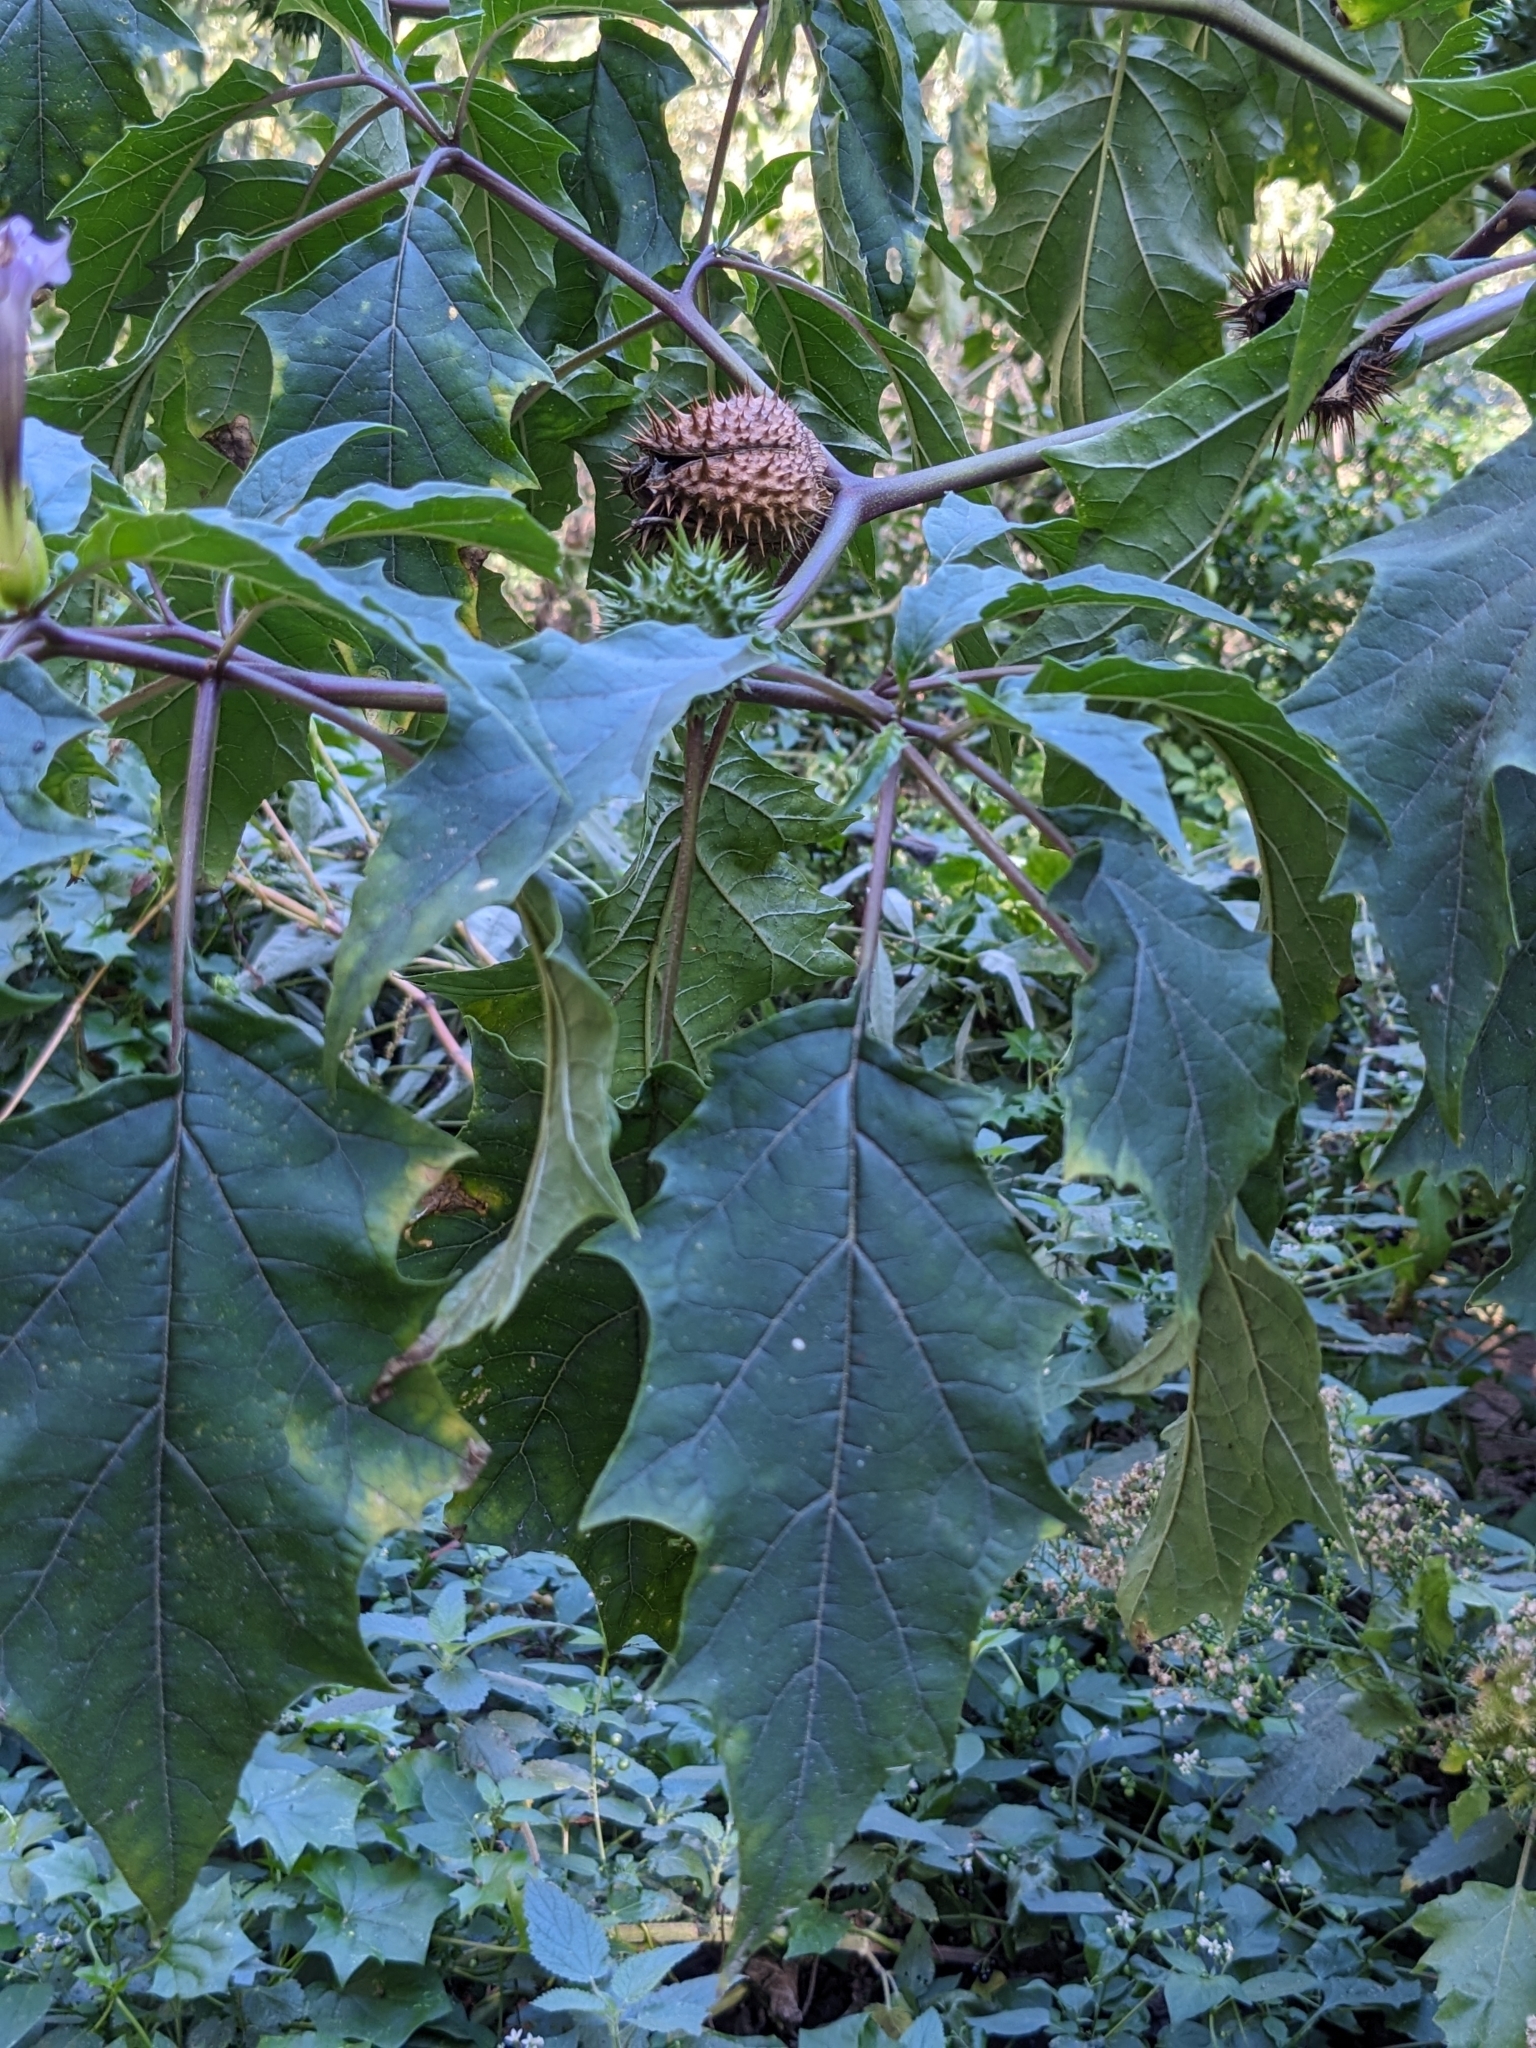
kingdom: Plantae
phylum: Tracheophyta
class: Magnoliopsida
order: Solanales
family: Solanaceae
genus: Datura
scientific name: Datura stramonium
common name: Thorn-apple
